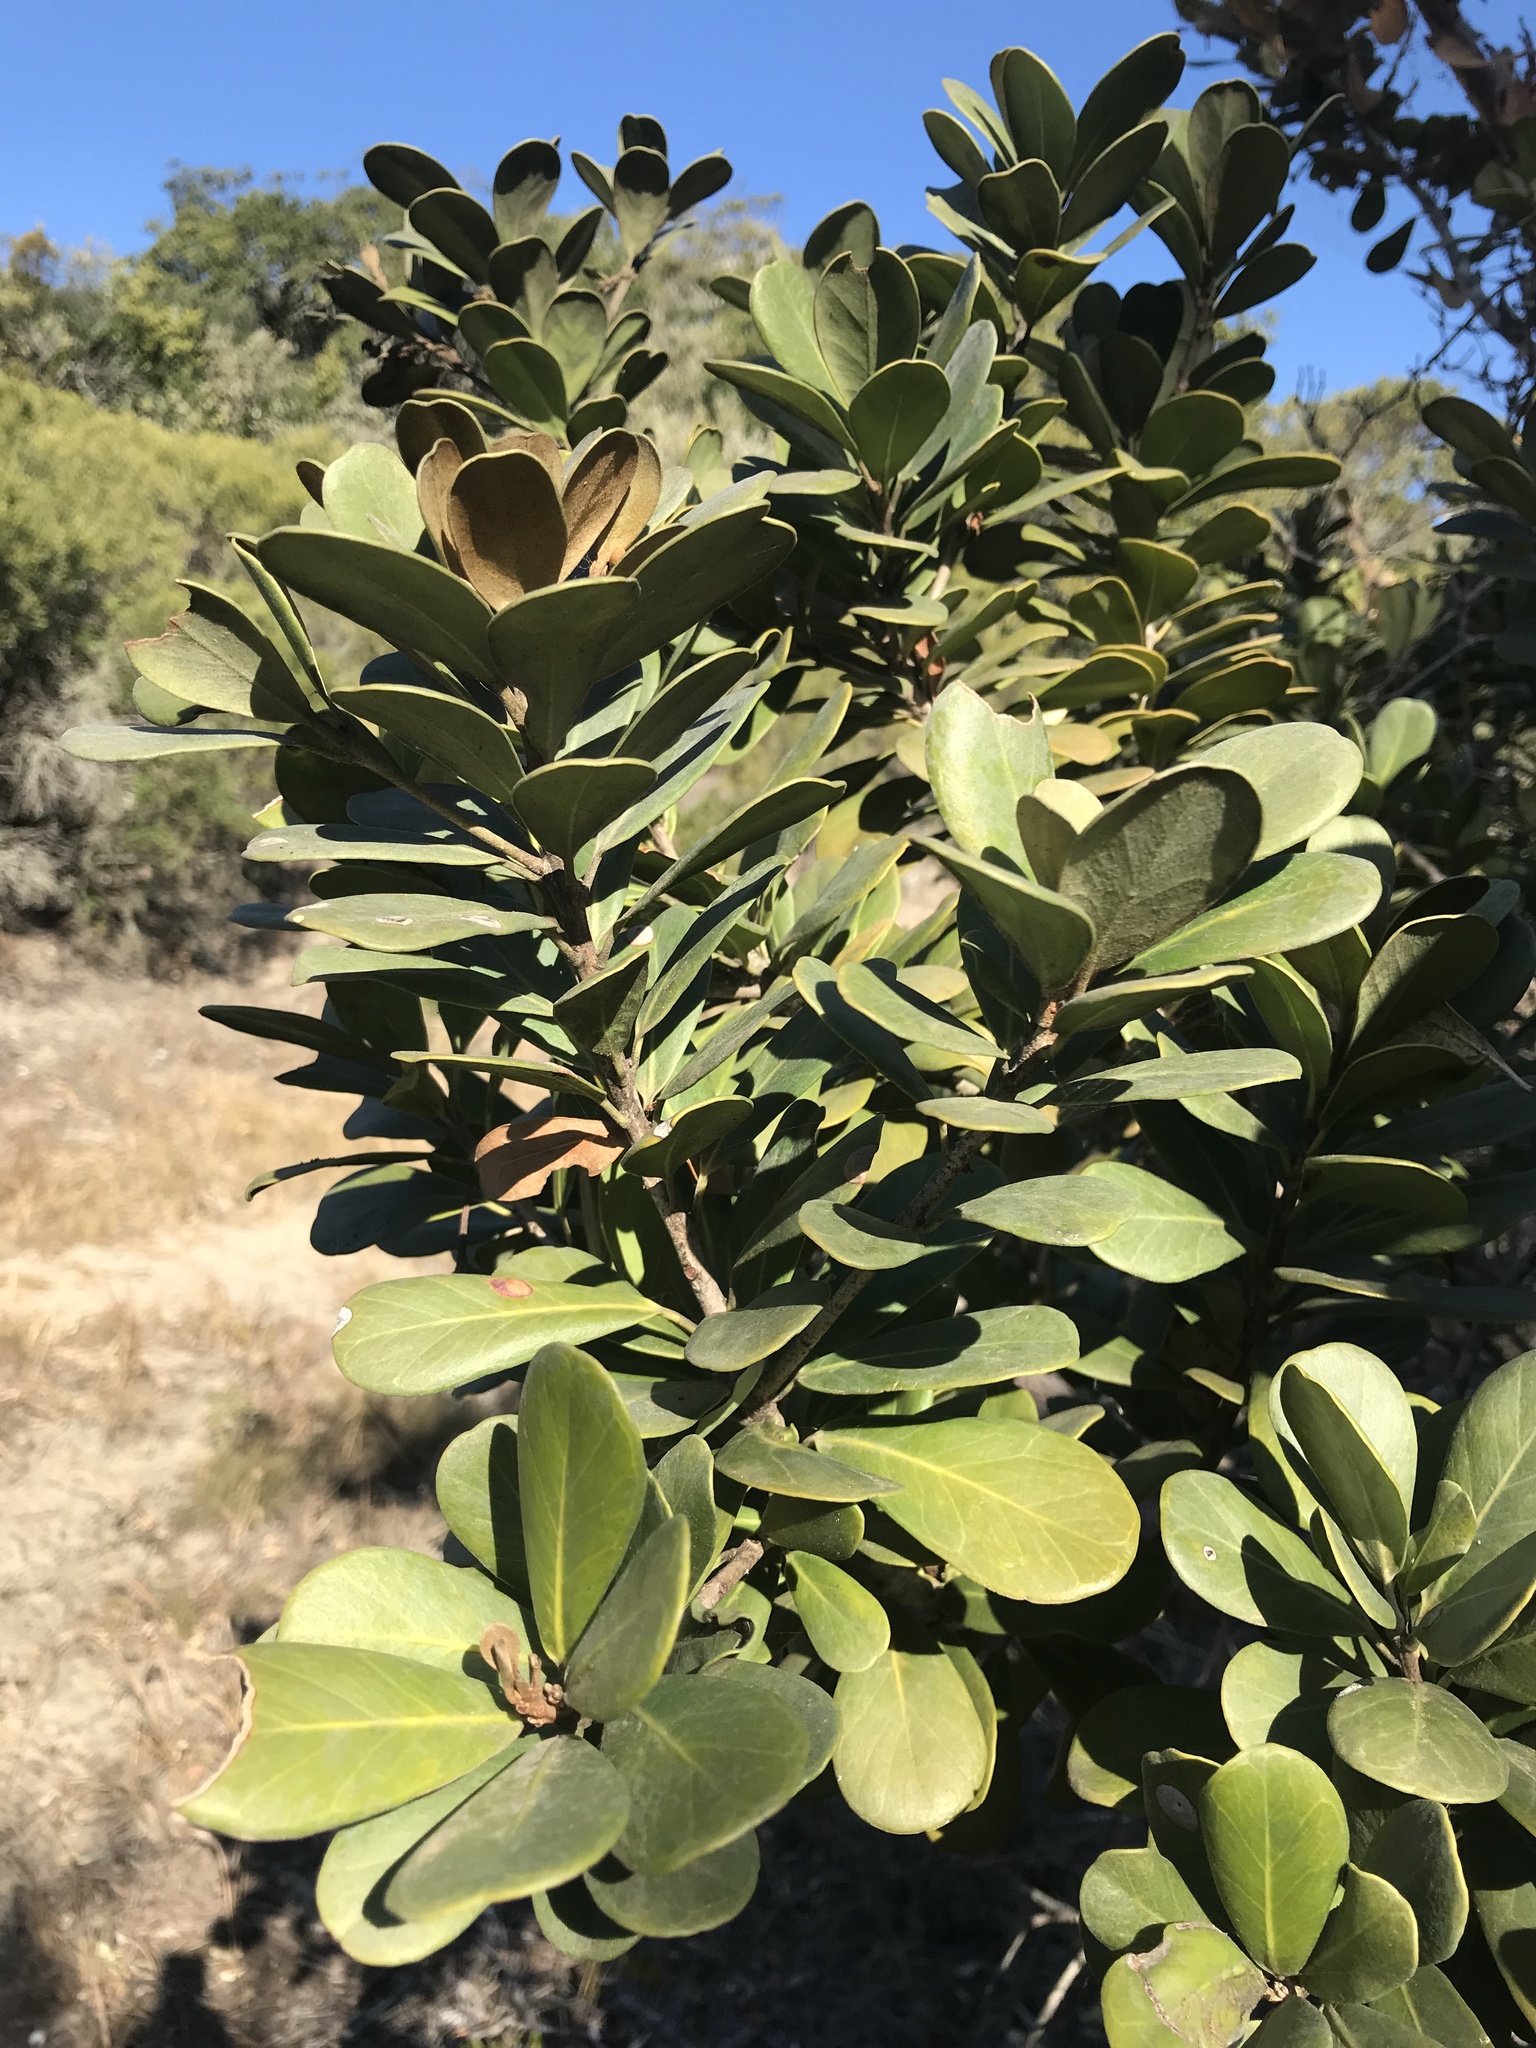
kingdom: Plantae
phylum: Tracheophyta
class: Magnoliopsida
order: Ericales
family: Sapotaceae
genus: Mimusops
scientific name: Mimusops caffra
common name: Coastal red milkwood
